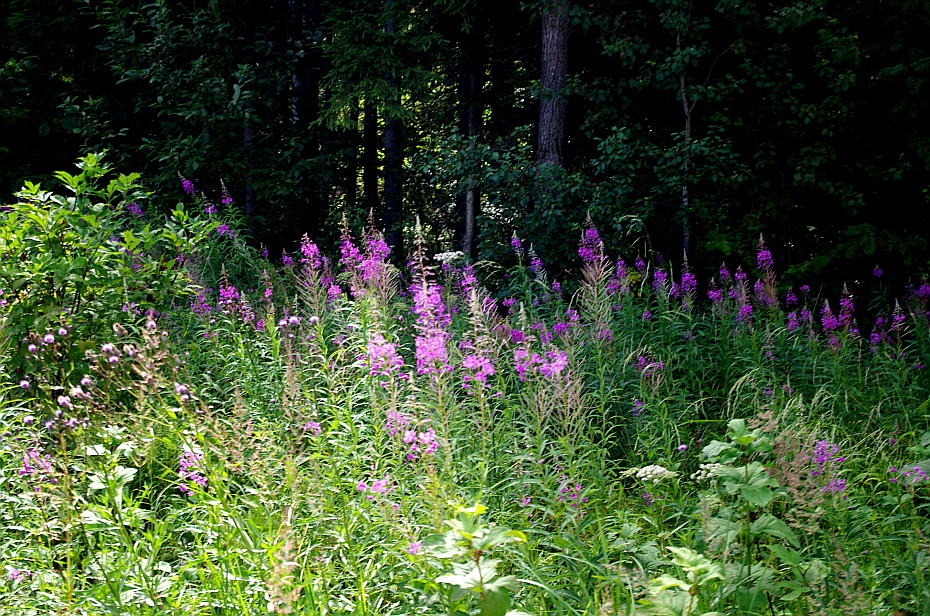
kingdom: Plantae
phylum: Tracheophyta
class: Magnoliopsida
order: Myrtales
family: Onagraceae
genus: Chamaenerion
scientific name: Chamaenerion angustifolium
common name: Fireweed
